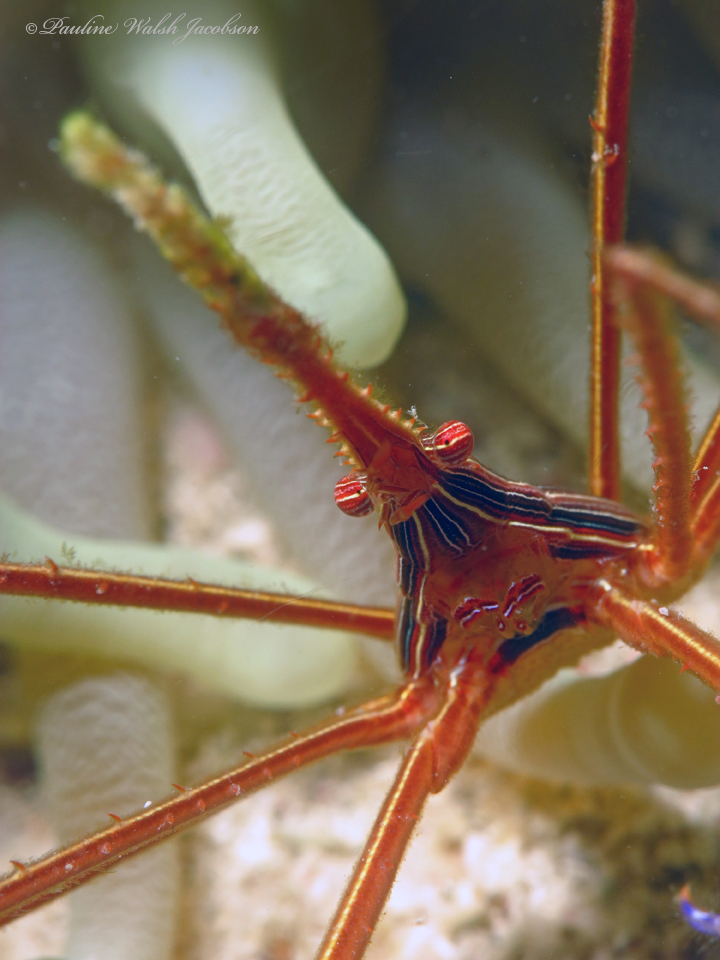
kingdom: Animalia
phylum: Arthropoda
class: Malacostraca
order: Decapoda
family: Inachoididae
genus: Stenorhynchus
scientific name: Stenorhynchus seticornis
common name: Arrow crab
